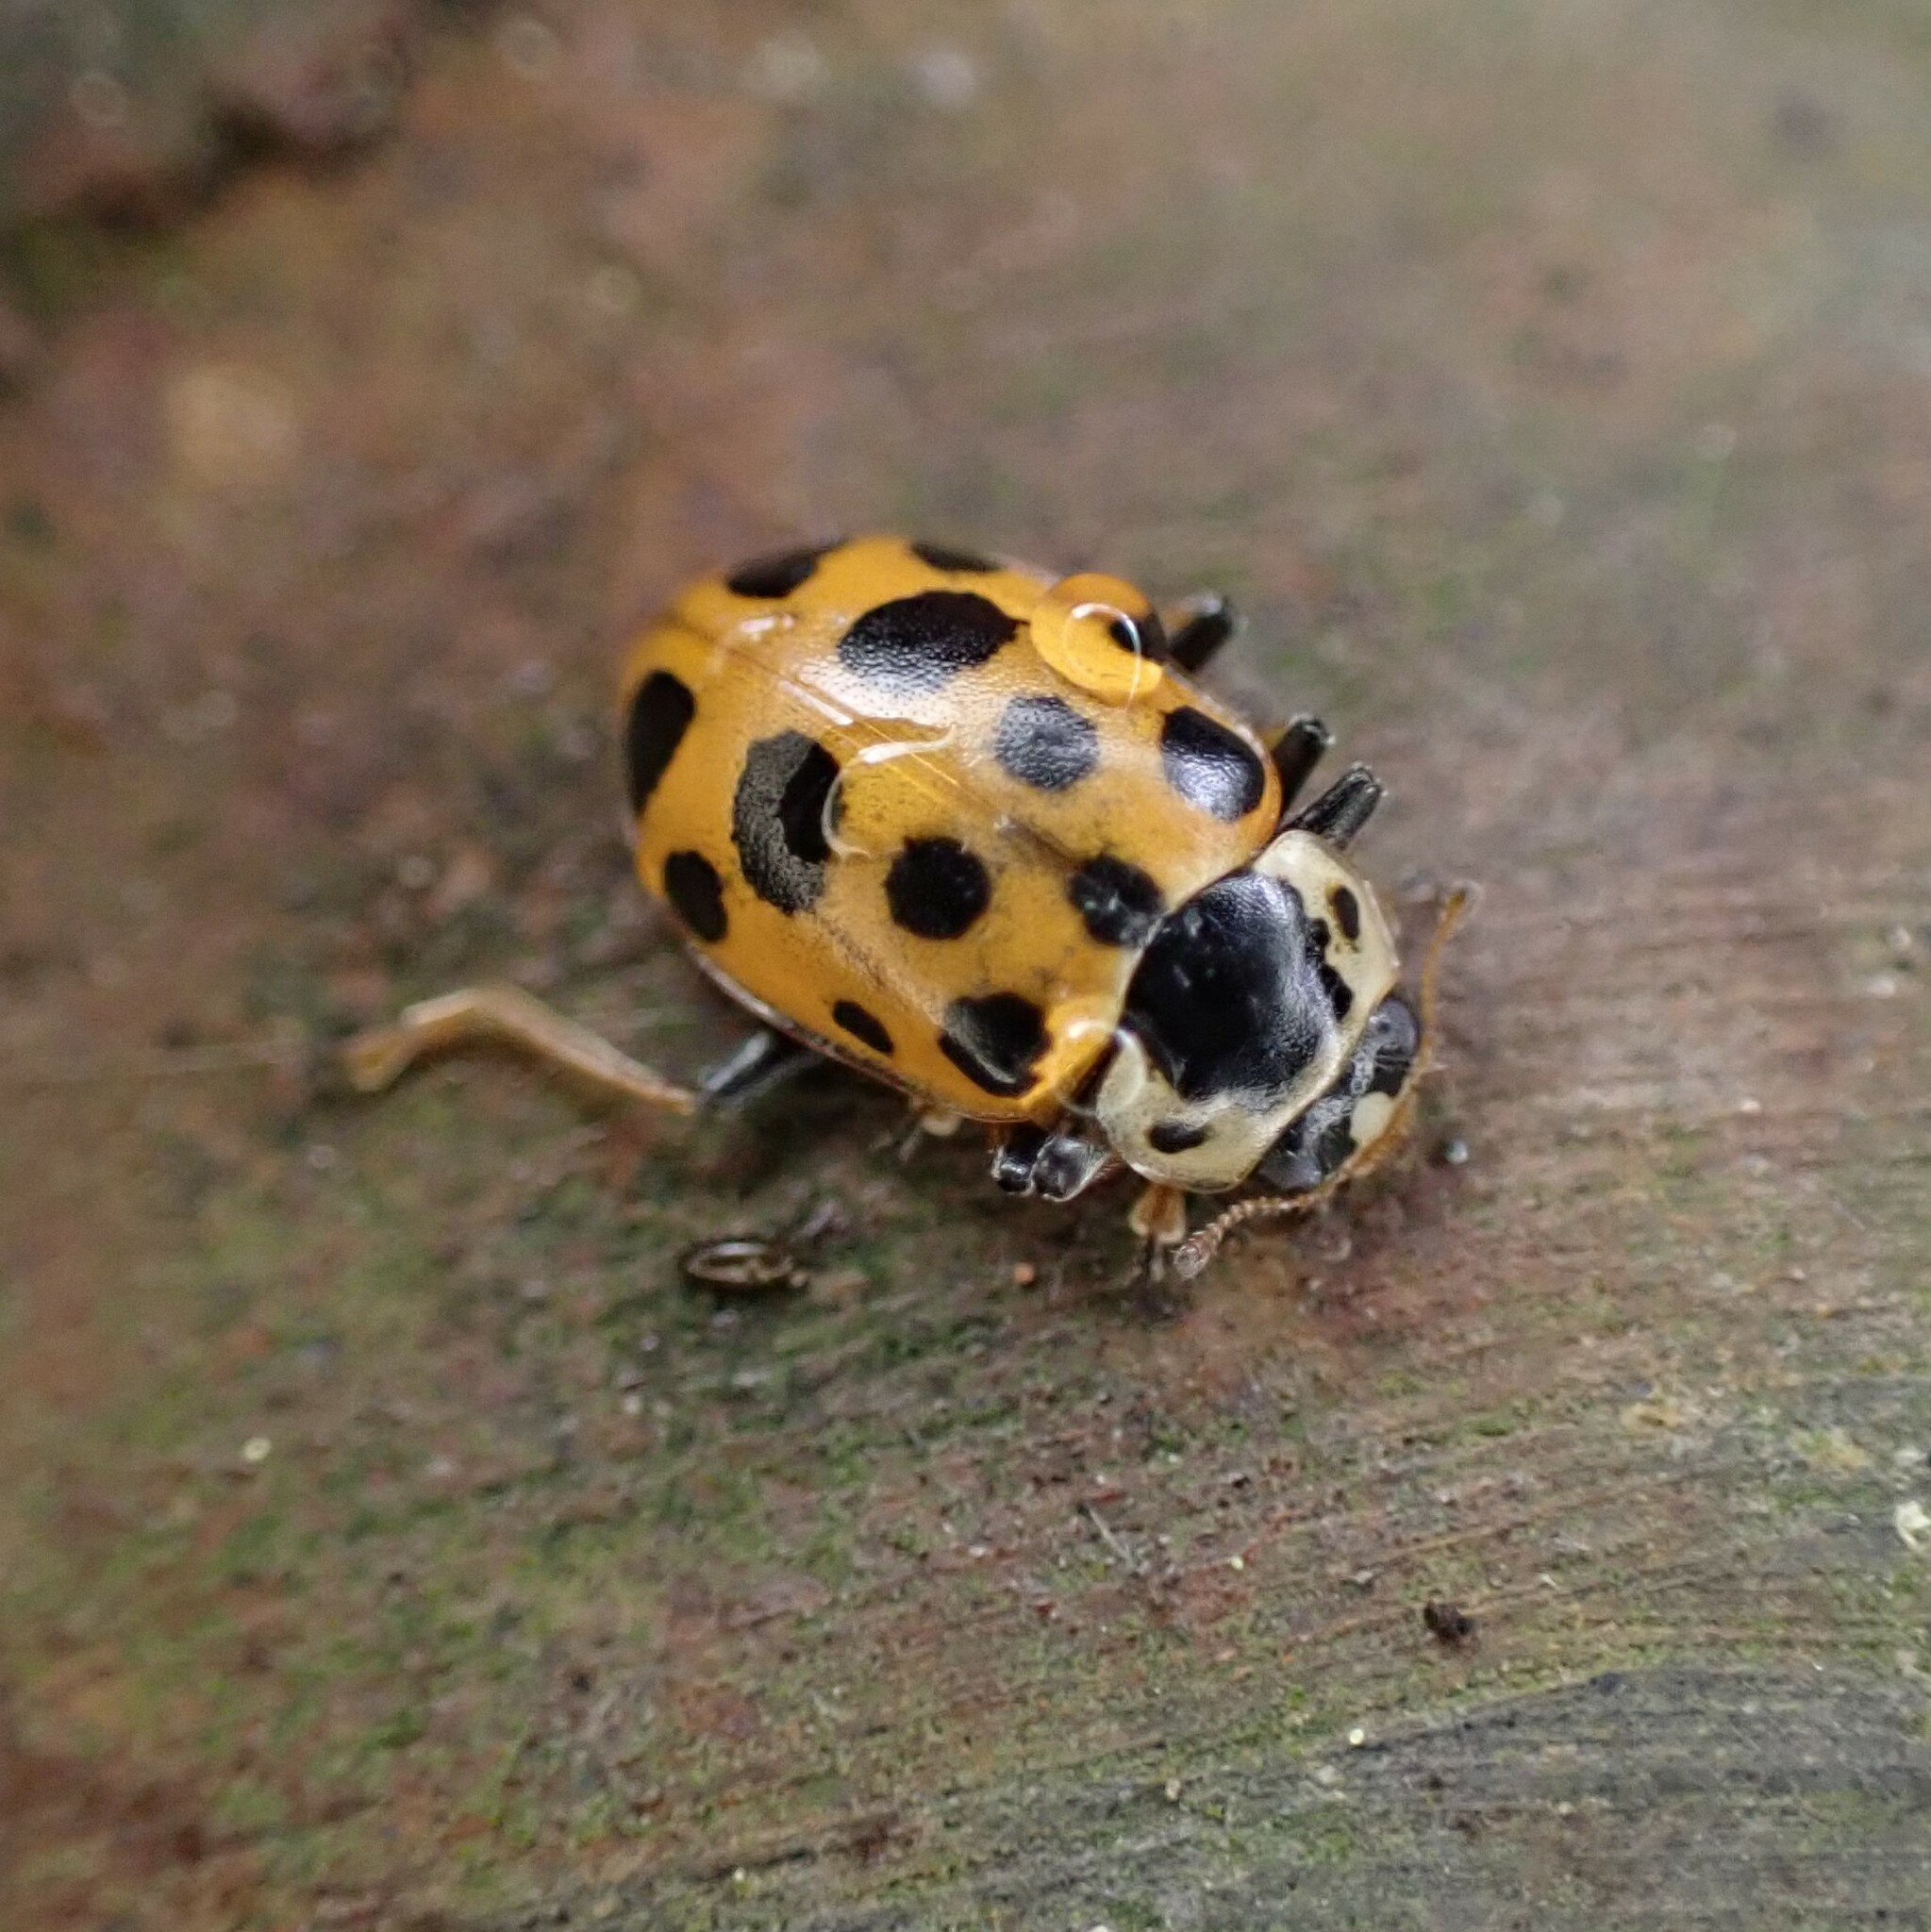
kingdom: Animalia
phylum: Arthropoda
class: Insecta
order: Coleoptera
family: Coccinellidae
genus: Hippodamia
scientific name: Hippodamia tredecimpunctata
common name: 13-spot ladybird
